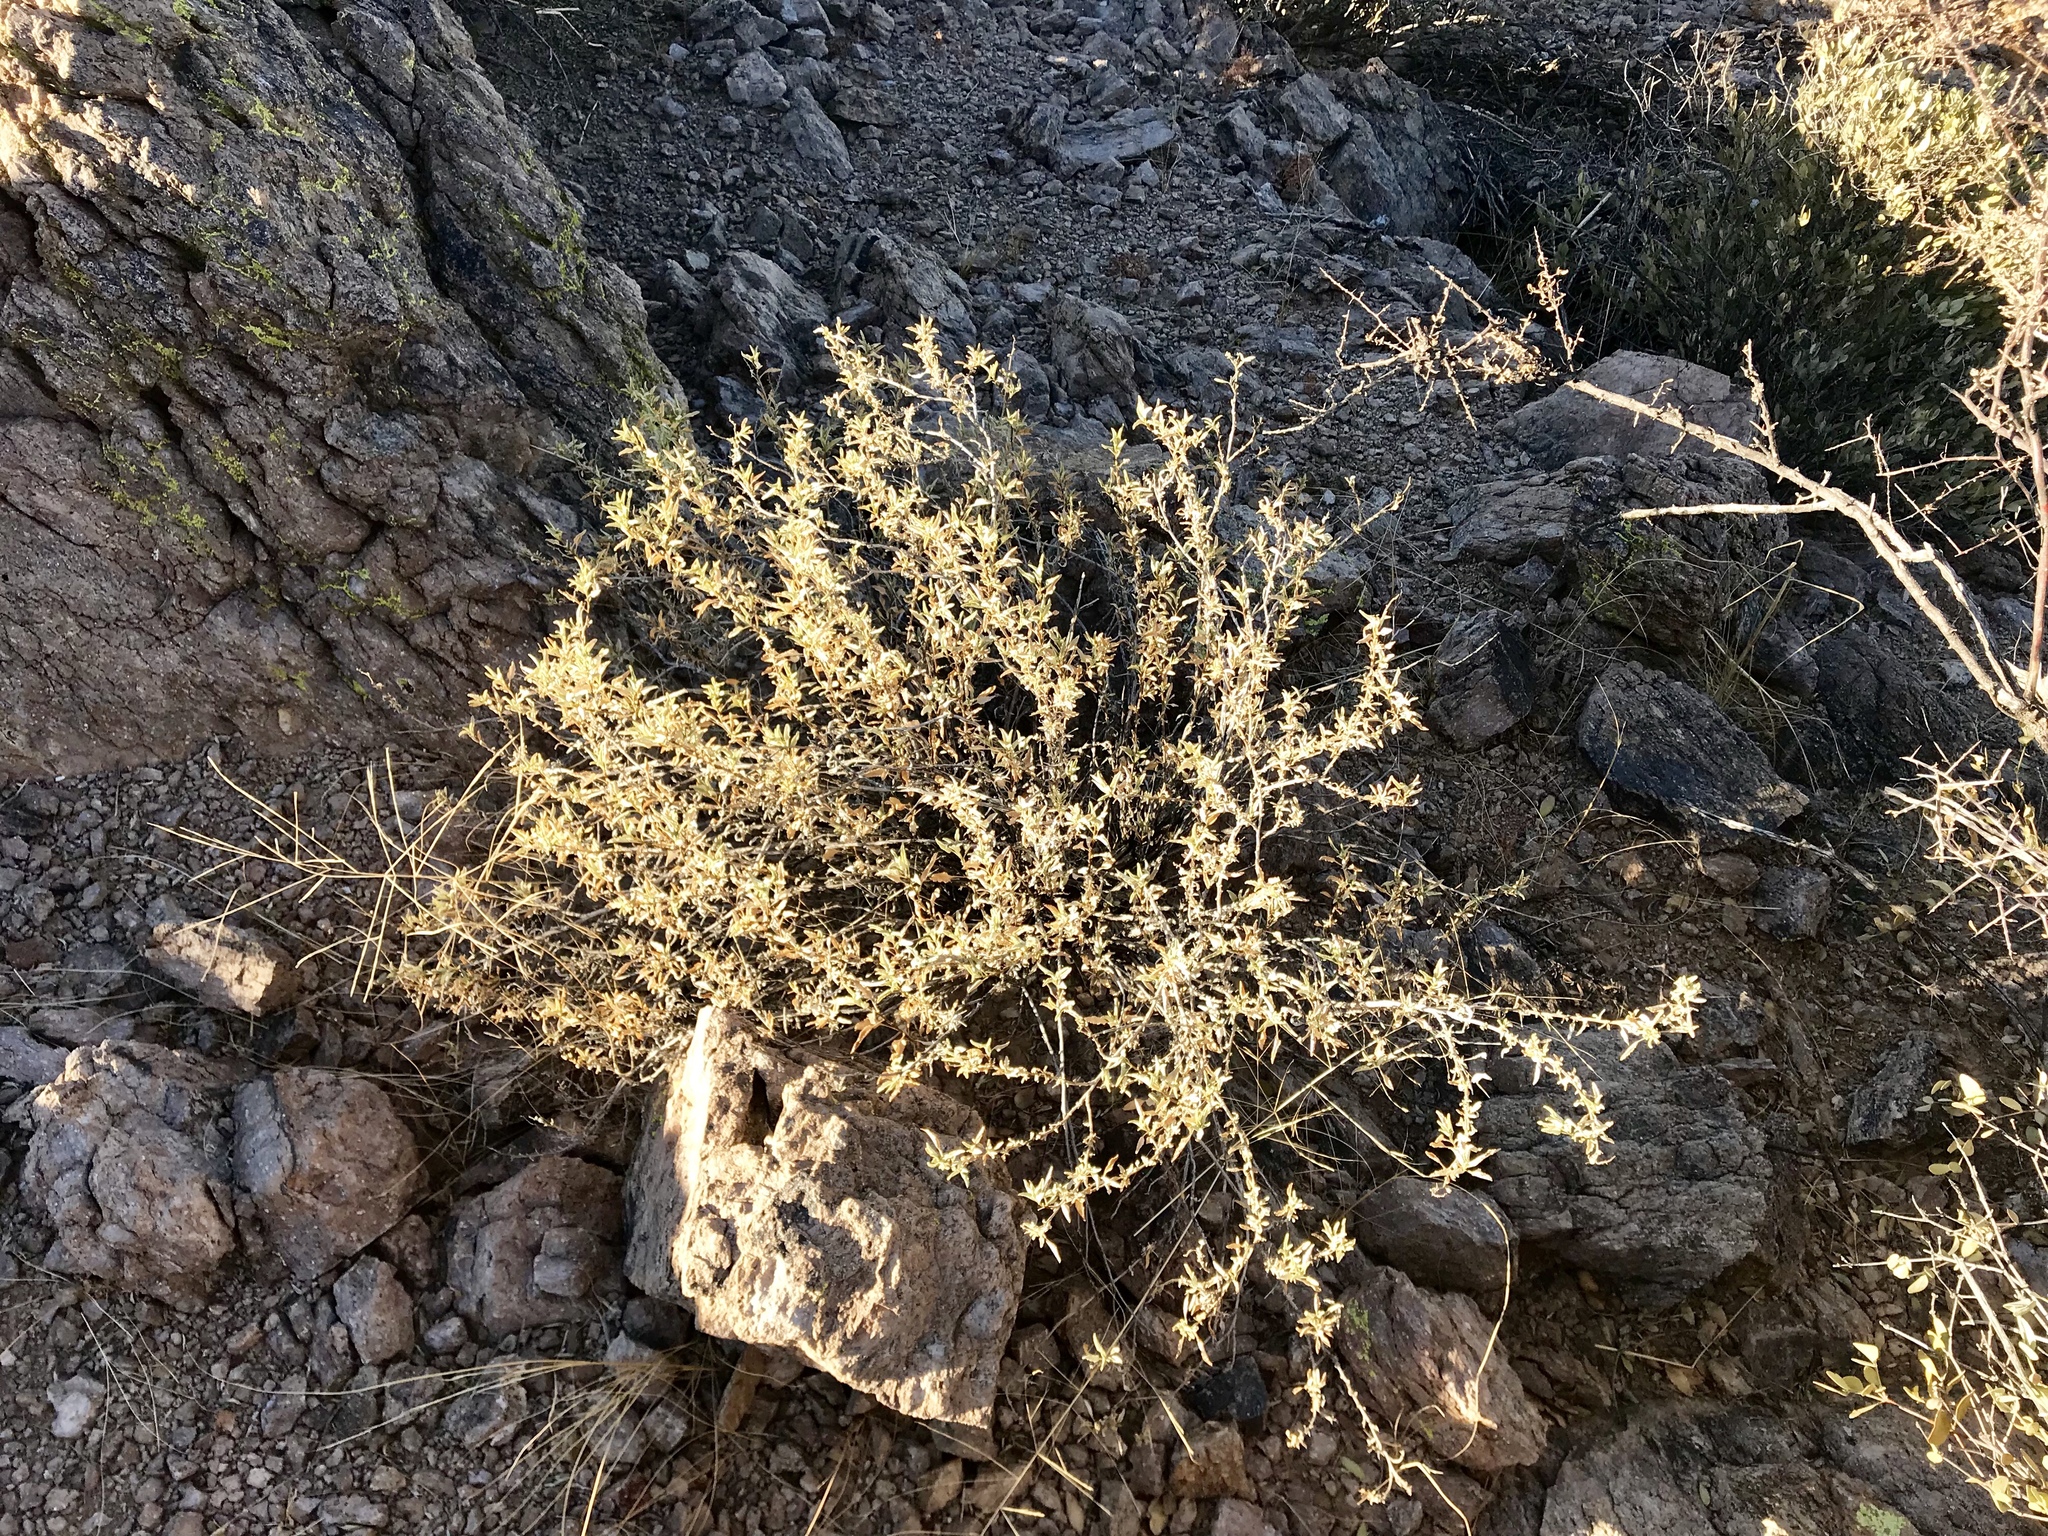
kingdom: Plantae
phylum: Tracheophyta
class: Magnoliopsida
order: Asterales
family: Asteraceae
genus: Ambrosia
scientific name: Ambrosia deltoidea
